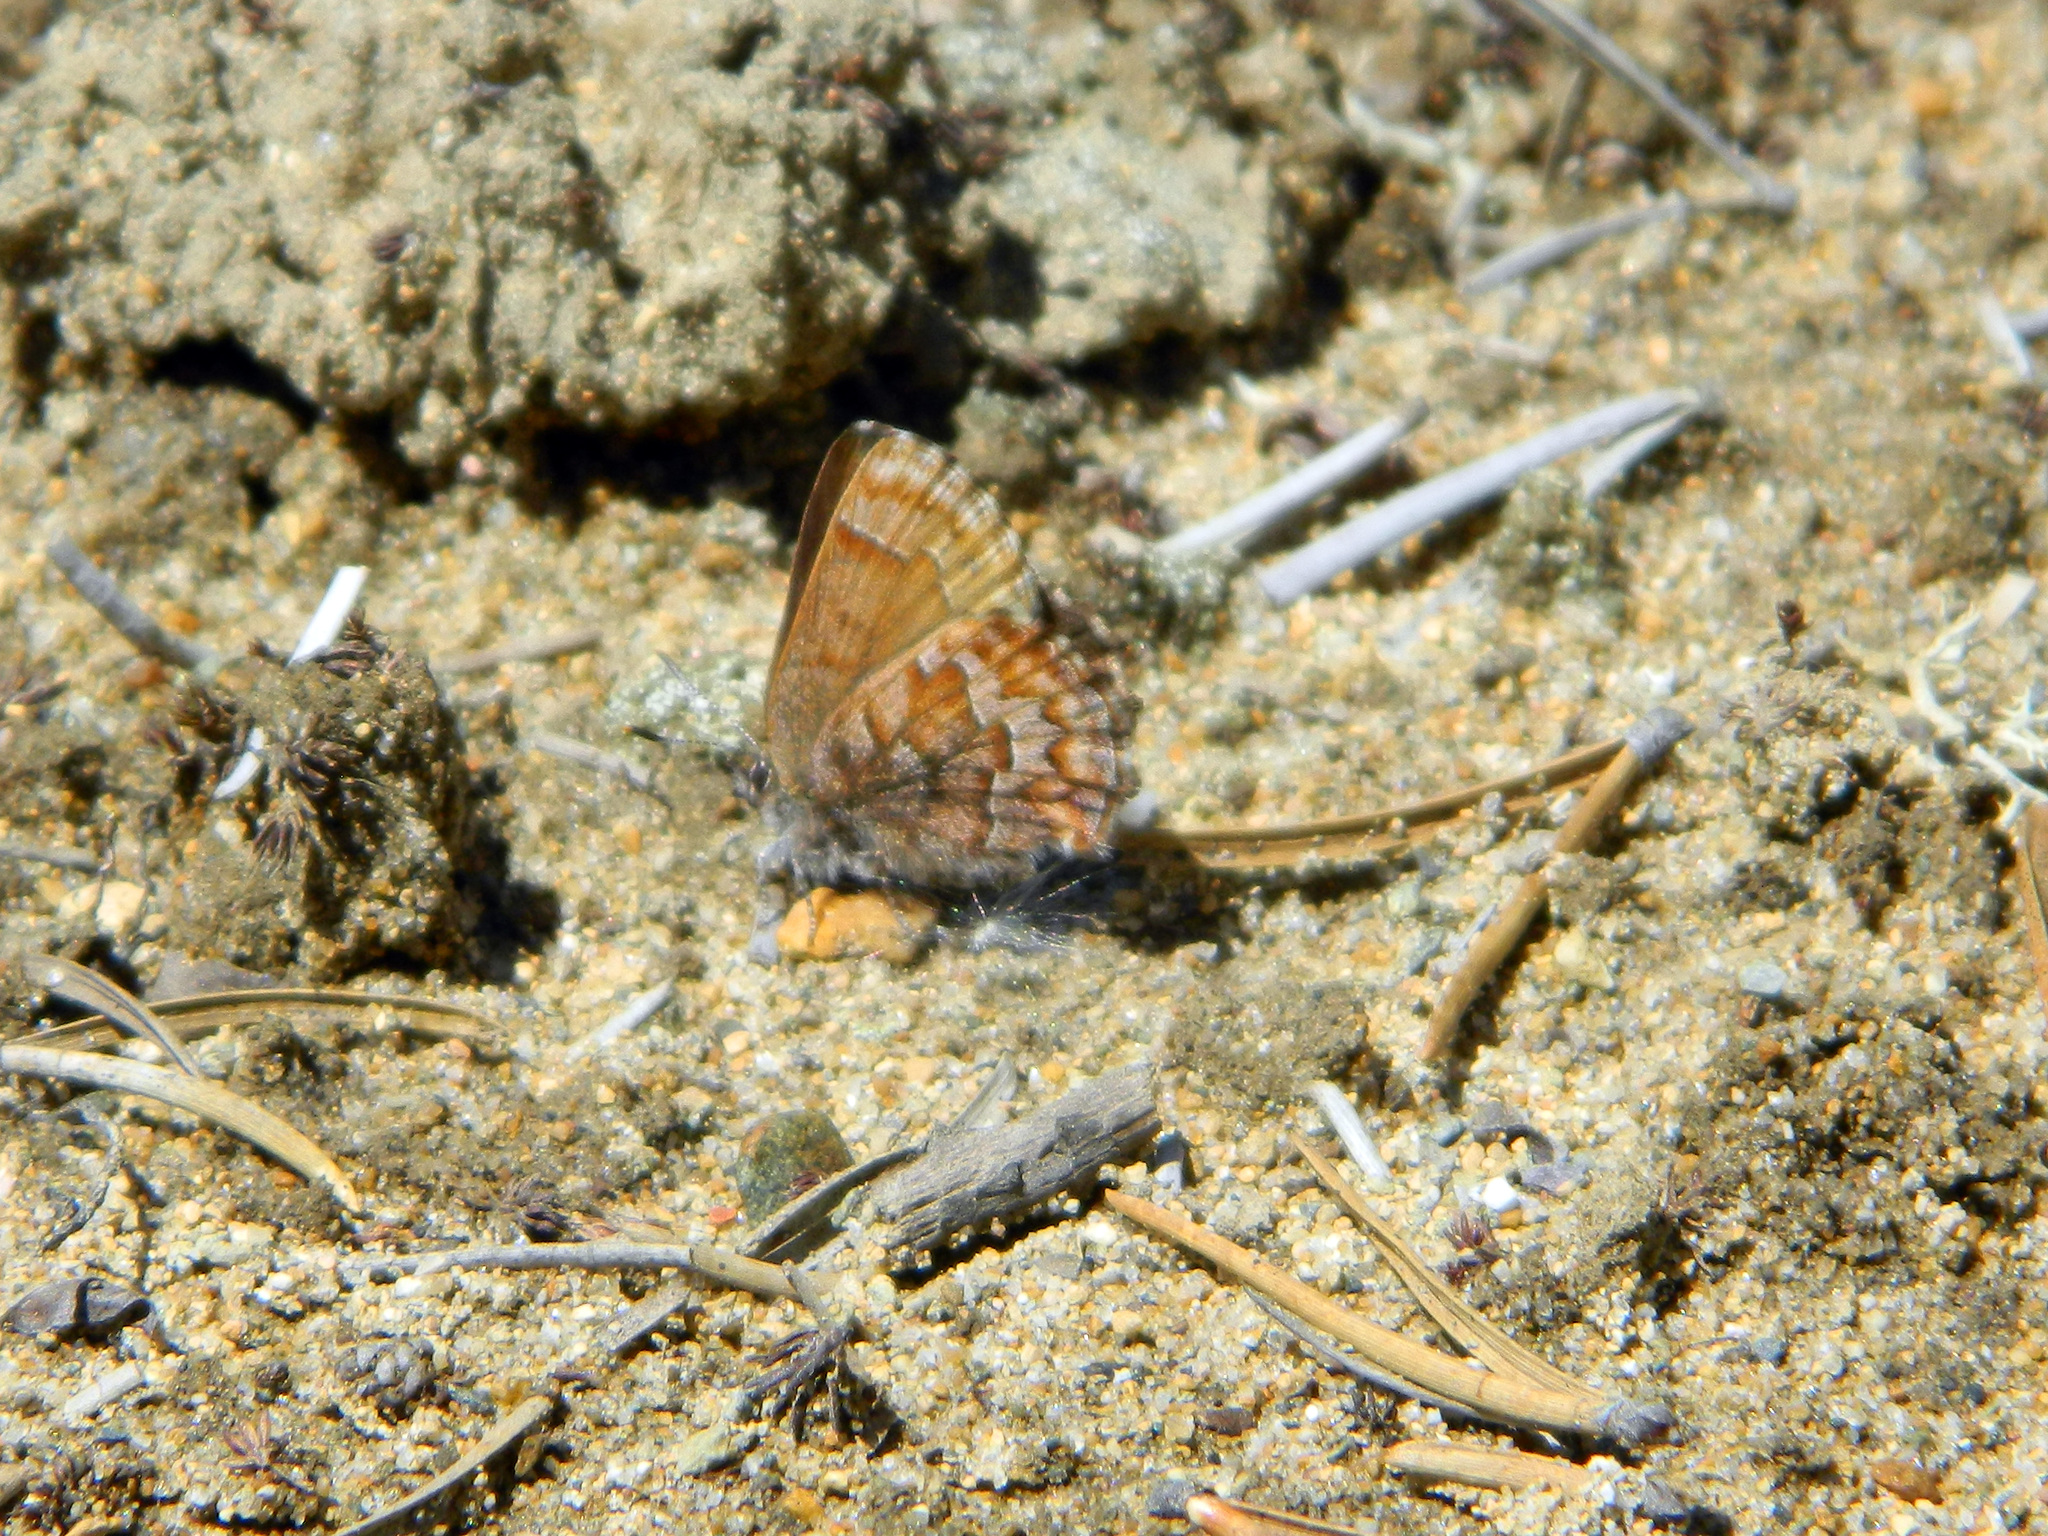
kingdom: Animalia
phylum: Arthropoda
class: Insecta
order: Lepidoptera
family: Lycaenidae
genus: Incisalia
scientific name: Incisalia niphon
